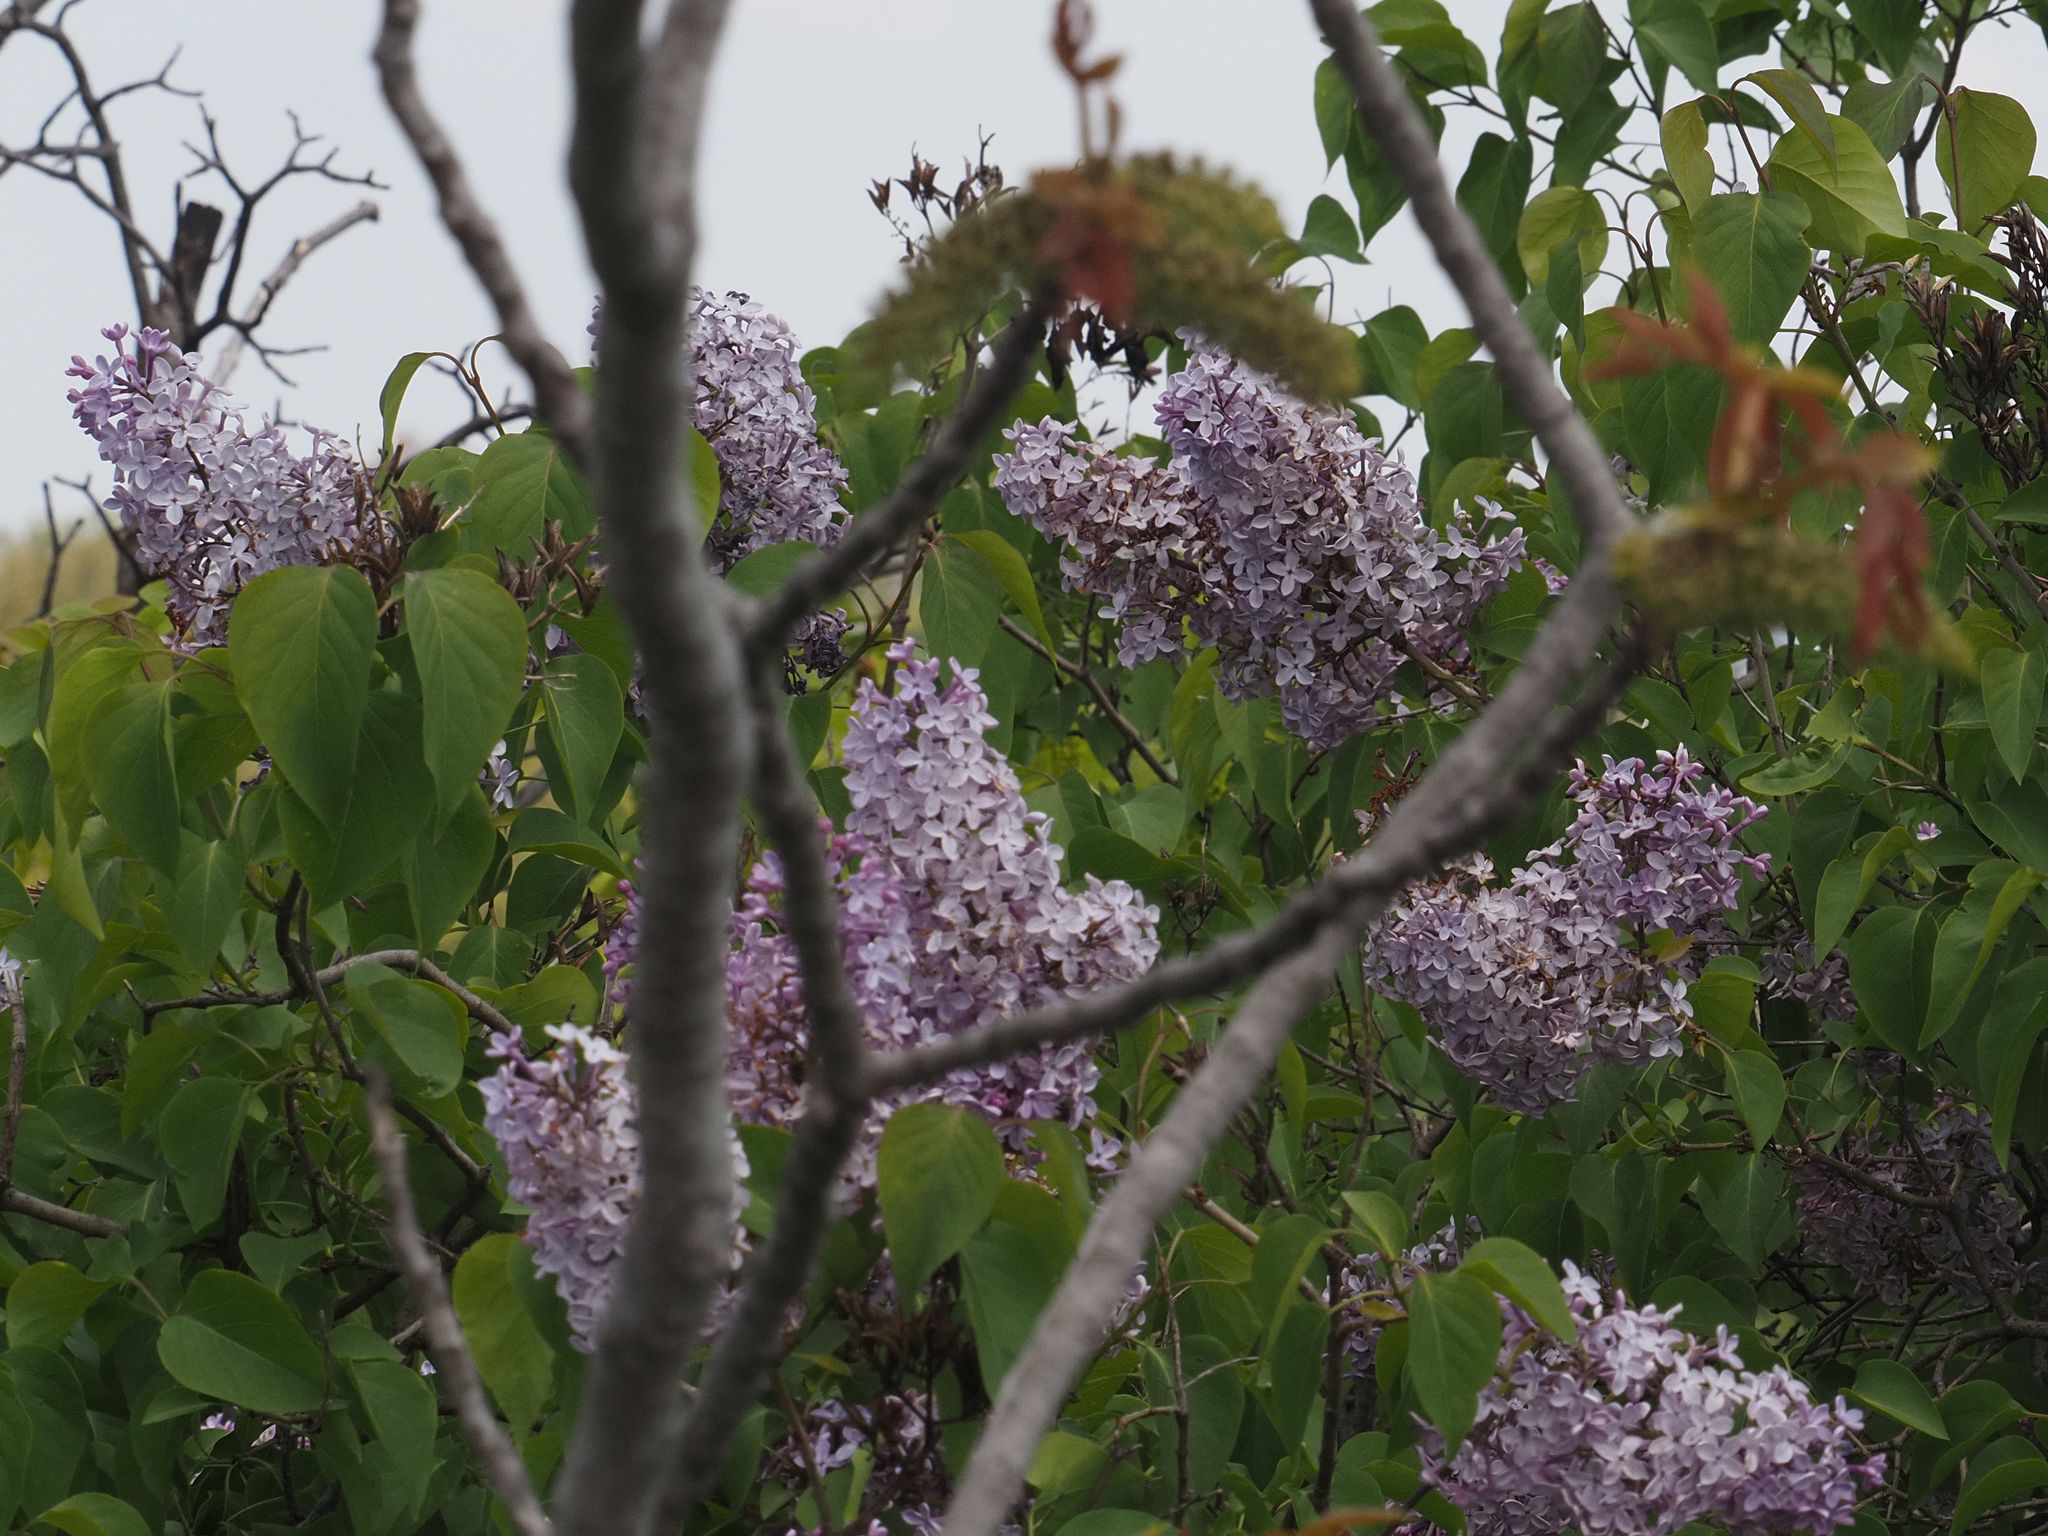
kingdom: Plantae
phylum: Tracheophyta
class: Magnoliopsida
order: Lamiales
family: Oleaceae
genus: Syringa
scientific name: Syringa vulgaris
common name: Common lilac
